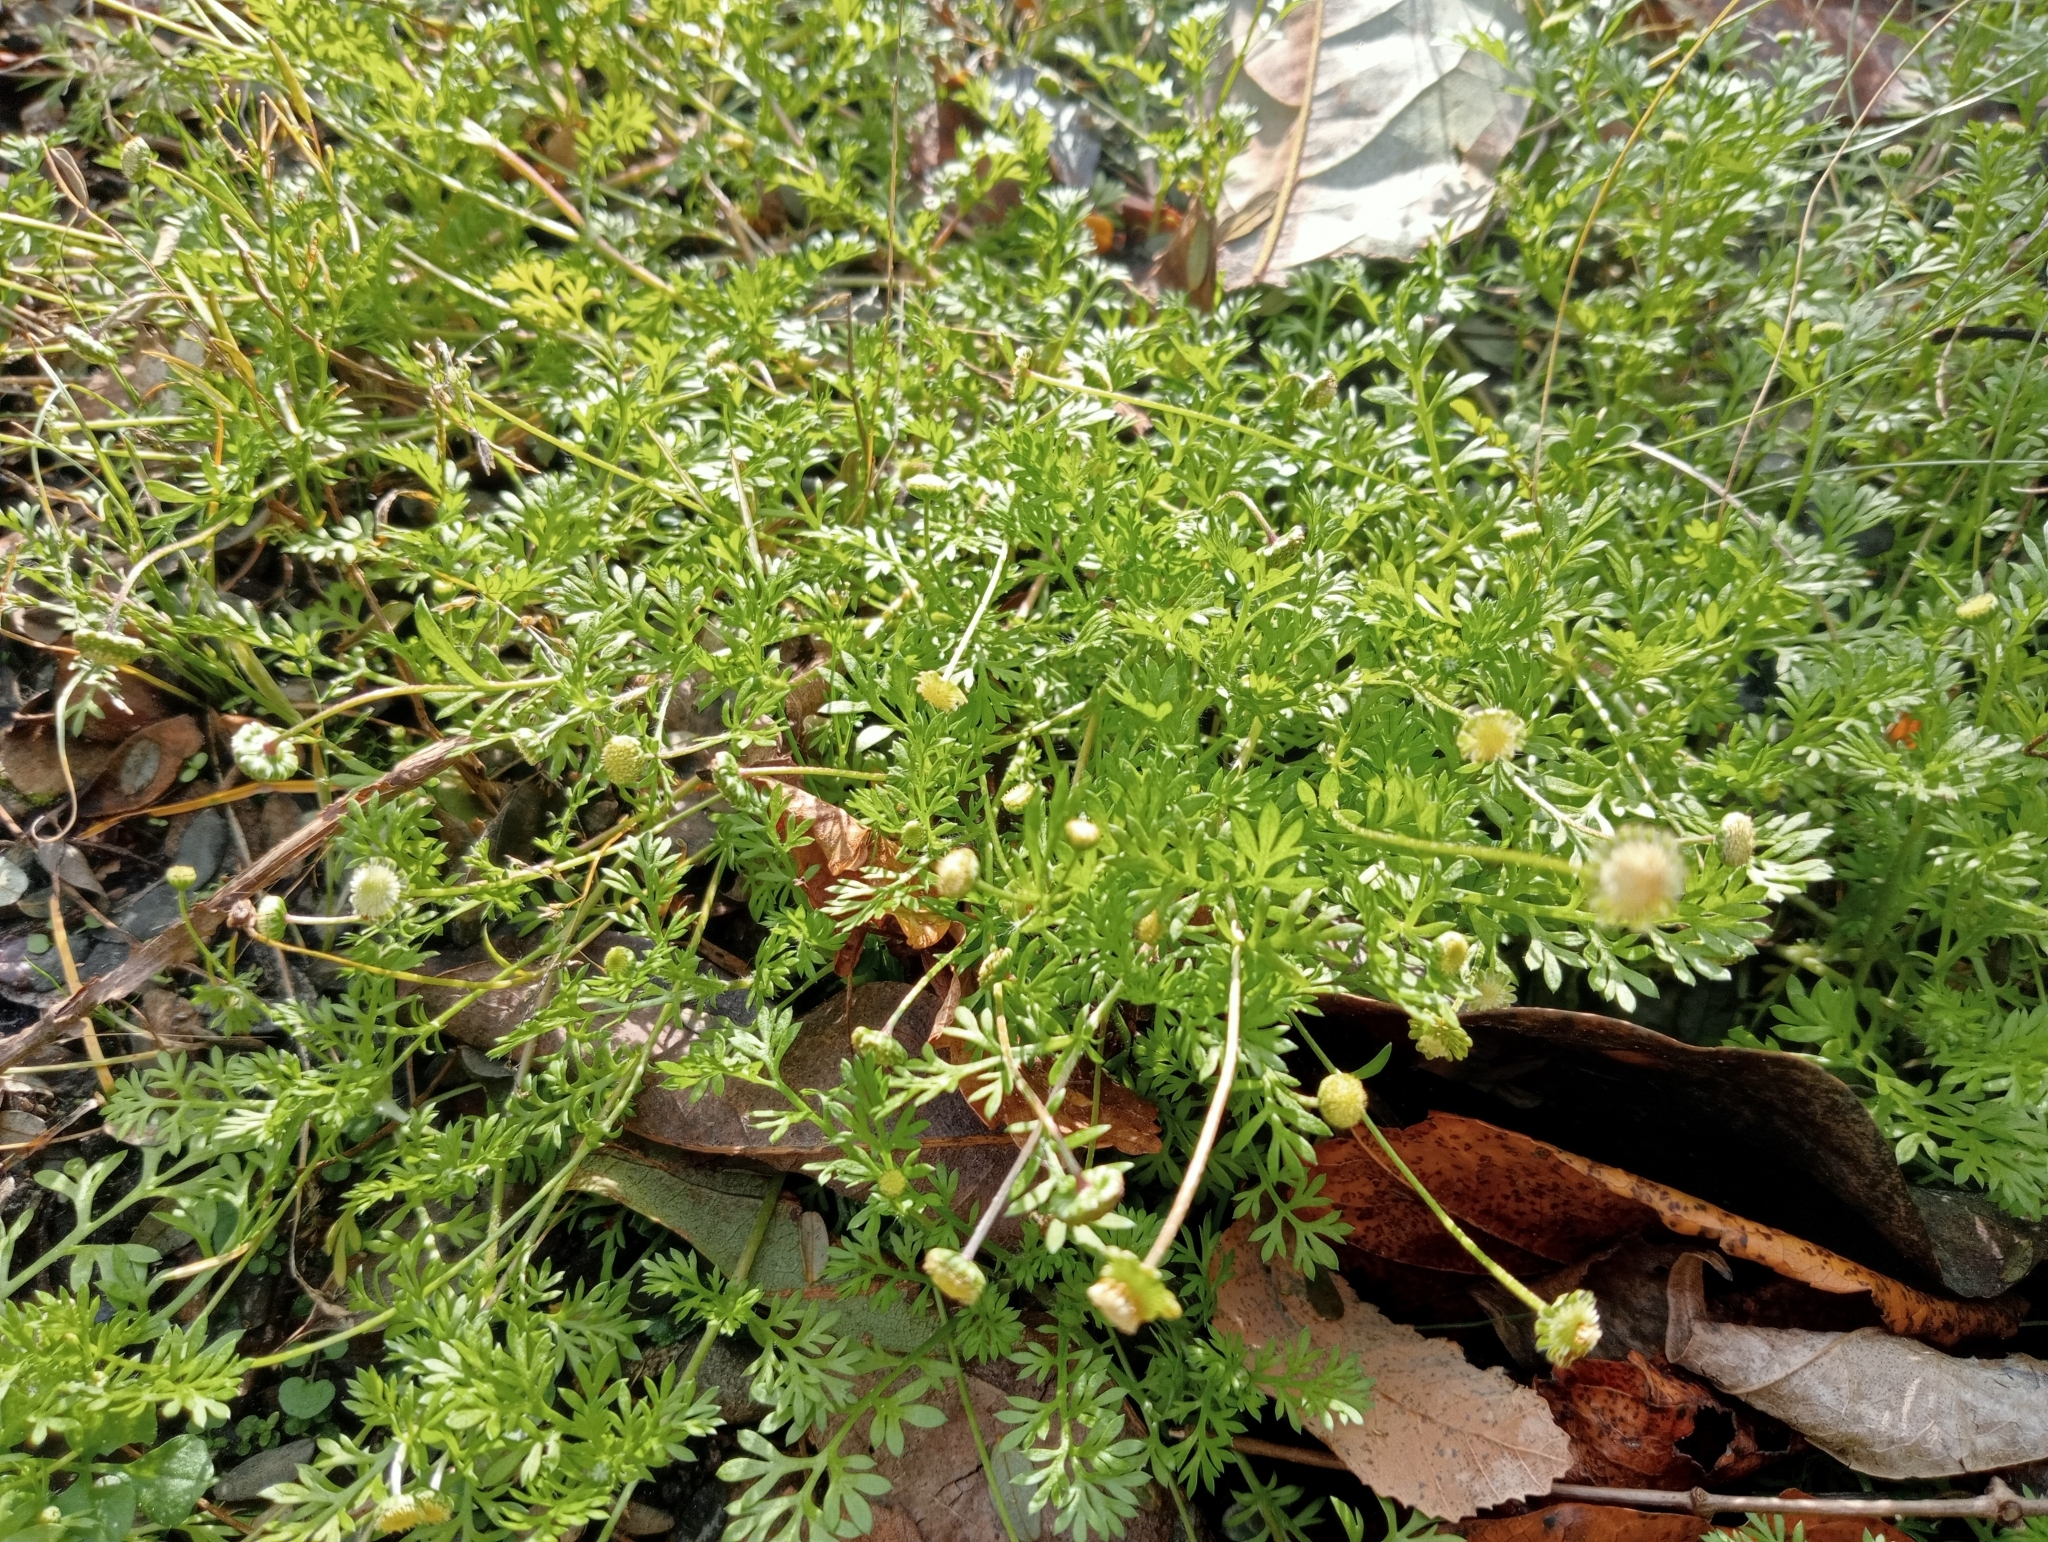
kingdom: Plantae
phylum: Tracheophyta
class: Magnoliopsida
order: Asterales
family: Asteraceae
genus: Cotula
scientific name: Cotula australis
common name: Australian waterbuttons
